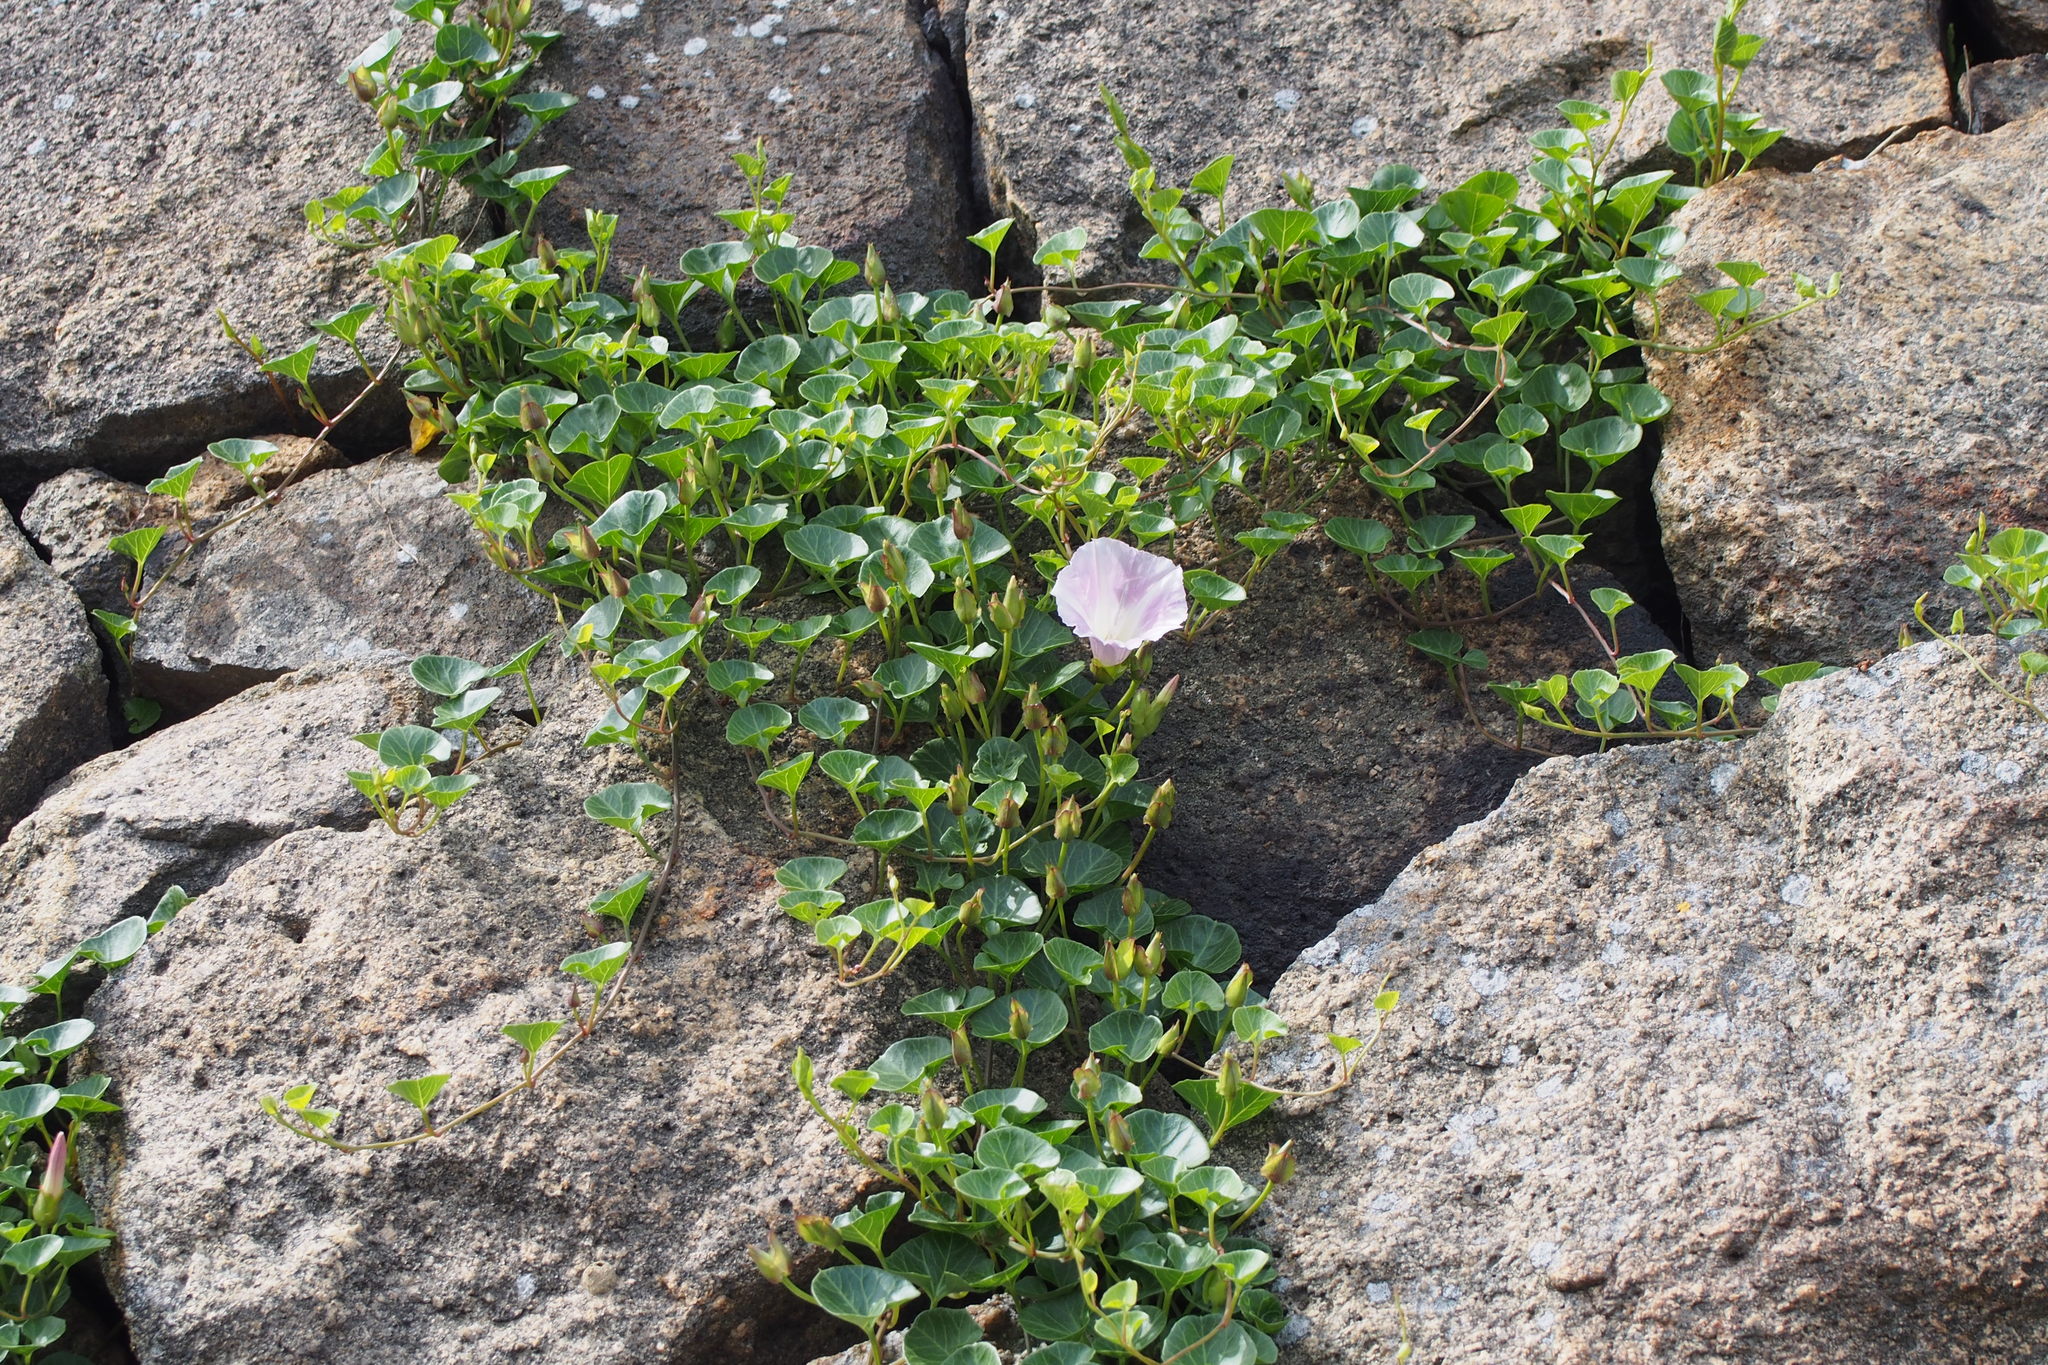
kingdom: Plantae
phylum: Tracheophyta
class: Magnoliopsida
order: Solanales
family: Convolvulaceae
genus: Calystegia
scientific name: Calystegia soldanella
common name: Sea bindweed
